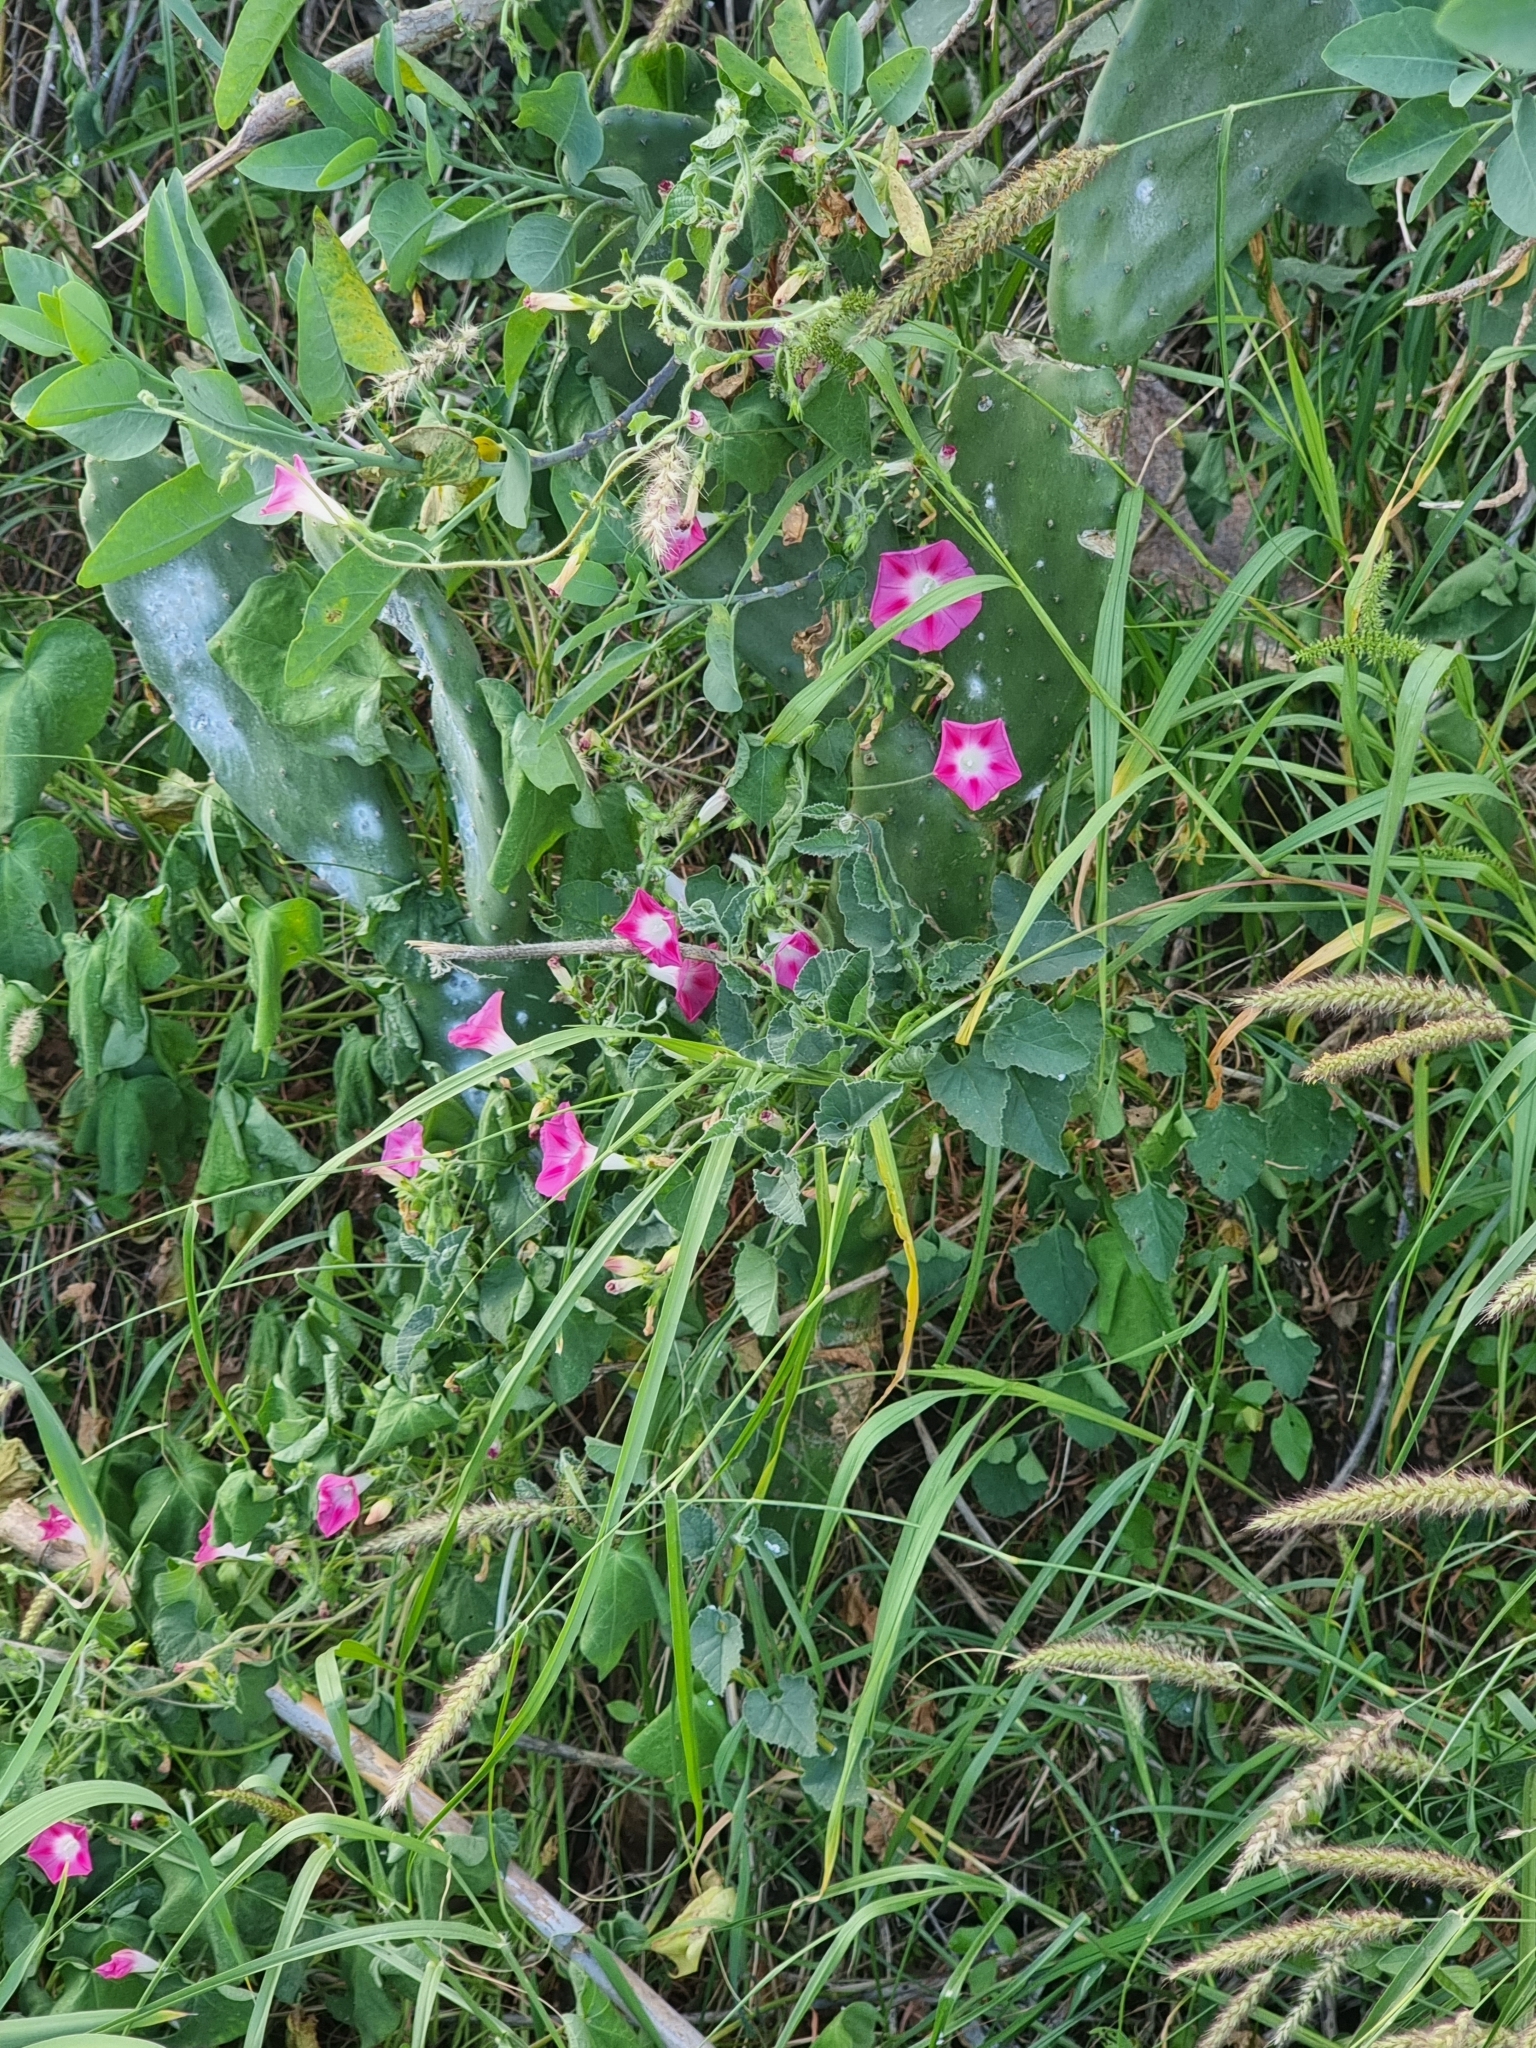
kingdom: Plantae
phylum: Tracheophyta
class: Magnoliopsida
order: Solanales
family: Convolvulaceae
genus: Ipomoea
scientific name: Ipomoea purpurea
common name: Common morning-glory
